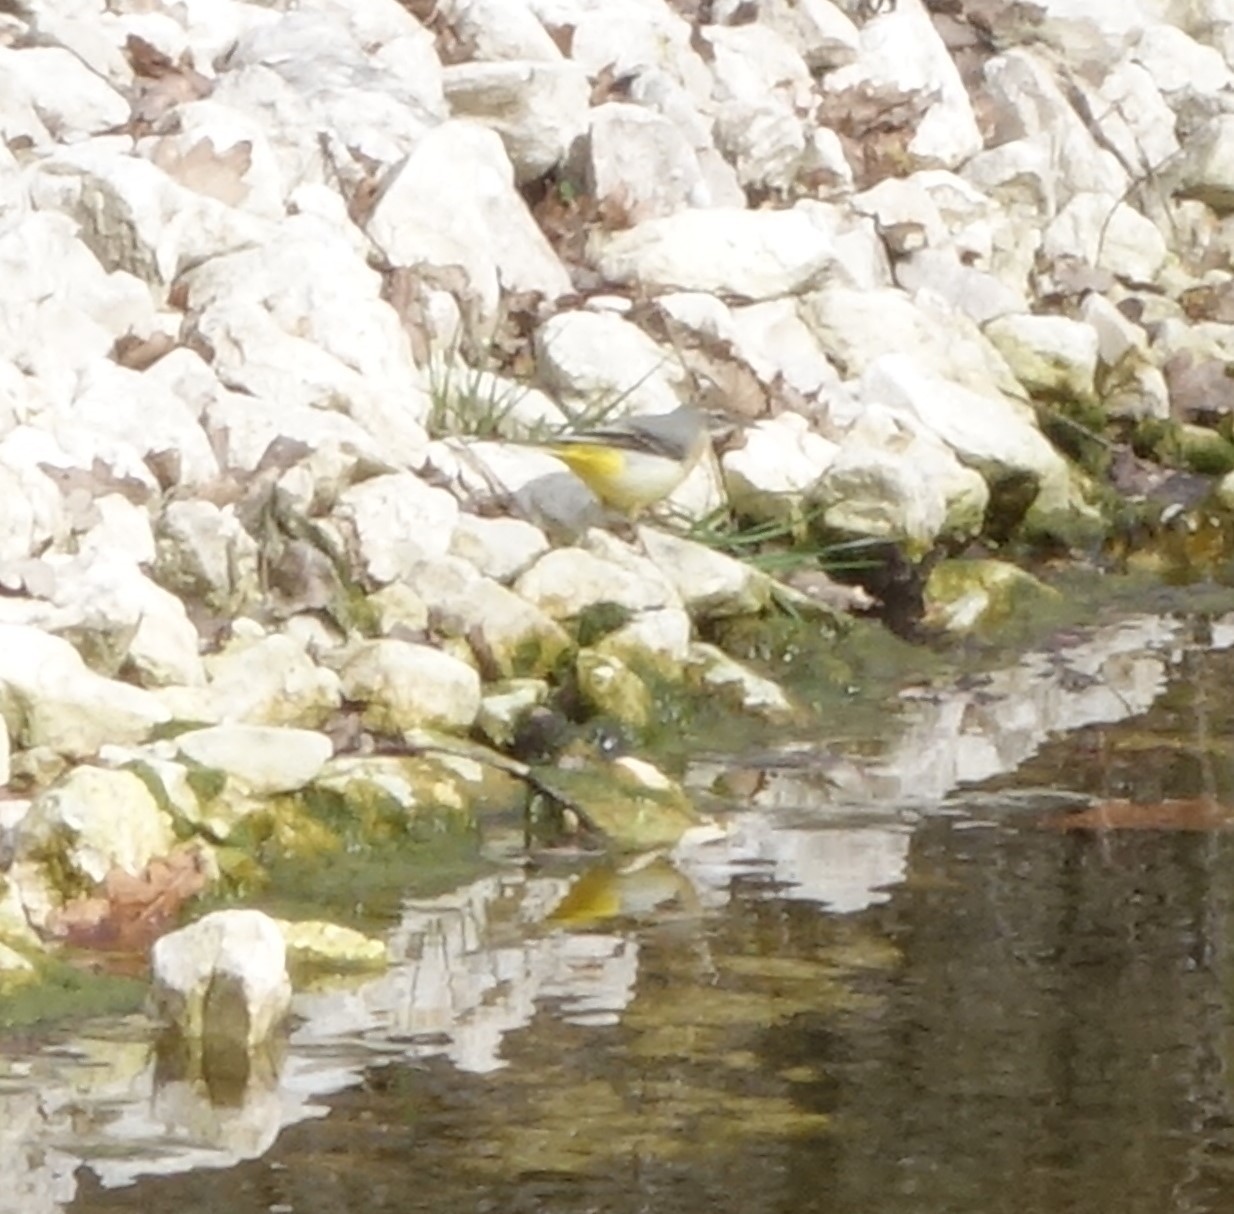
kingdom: Animalia
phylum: Chordata
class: Aves
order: Passeriformes
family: Motacillidae
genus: Motacilla
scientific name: Motacilla cinerea
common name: Grey wagtail
